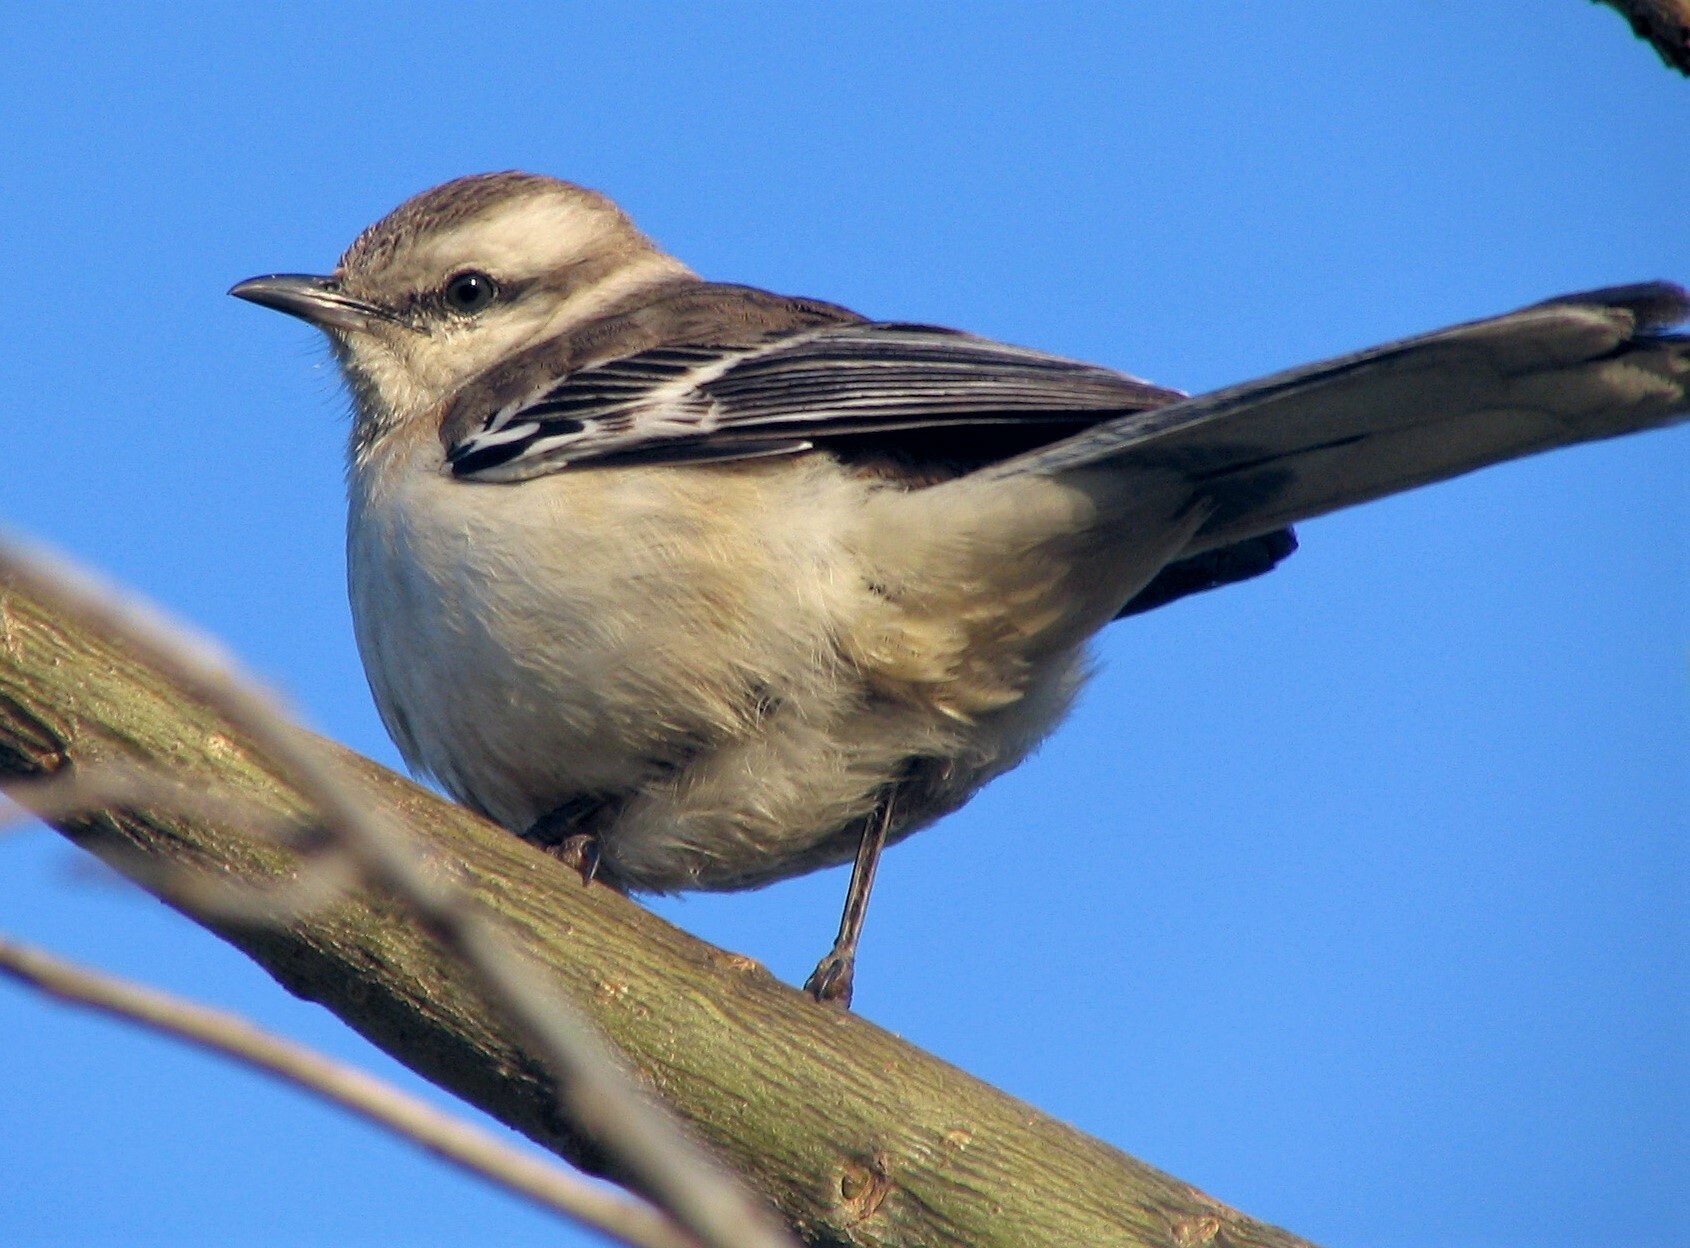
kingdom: Animalia
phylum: Chordata
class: Aves
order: Passeriformes
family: Mimidae
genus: Mimus
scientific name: Mimus saturninus
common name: Chalk-browed mockingbird
